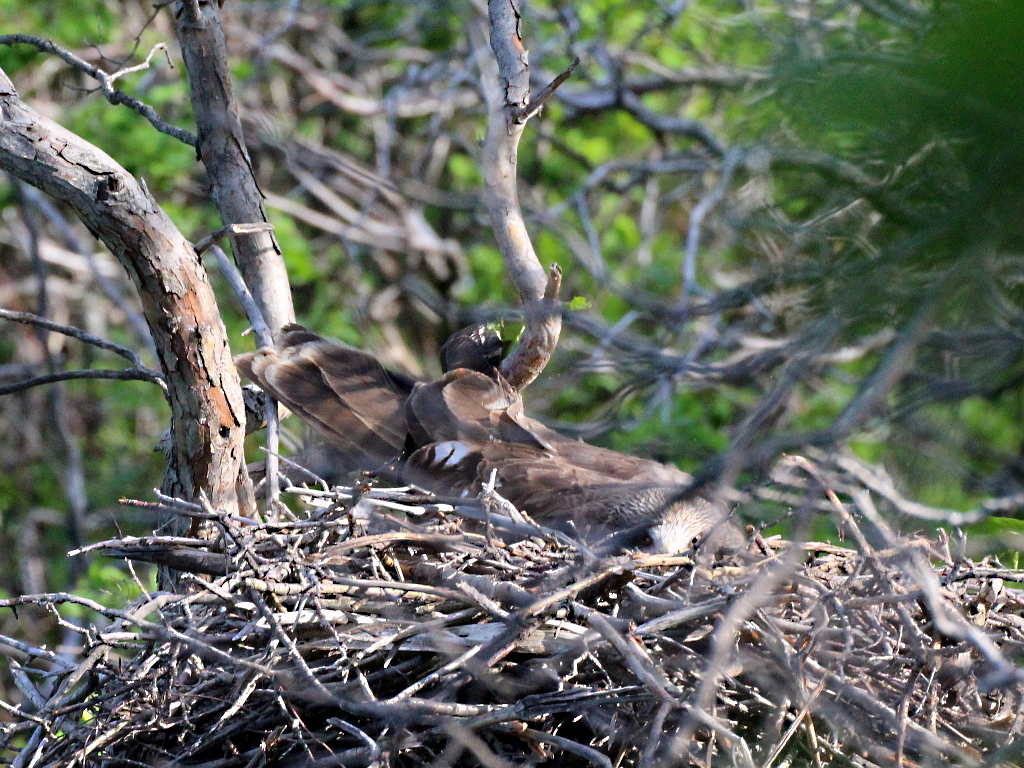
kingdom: Animalia
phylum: Chordata
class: Aves
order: Accipitriformes
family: Accipitridae
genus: Milvus
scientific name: Milvus migrans
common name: Black kite
